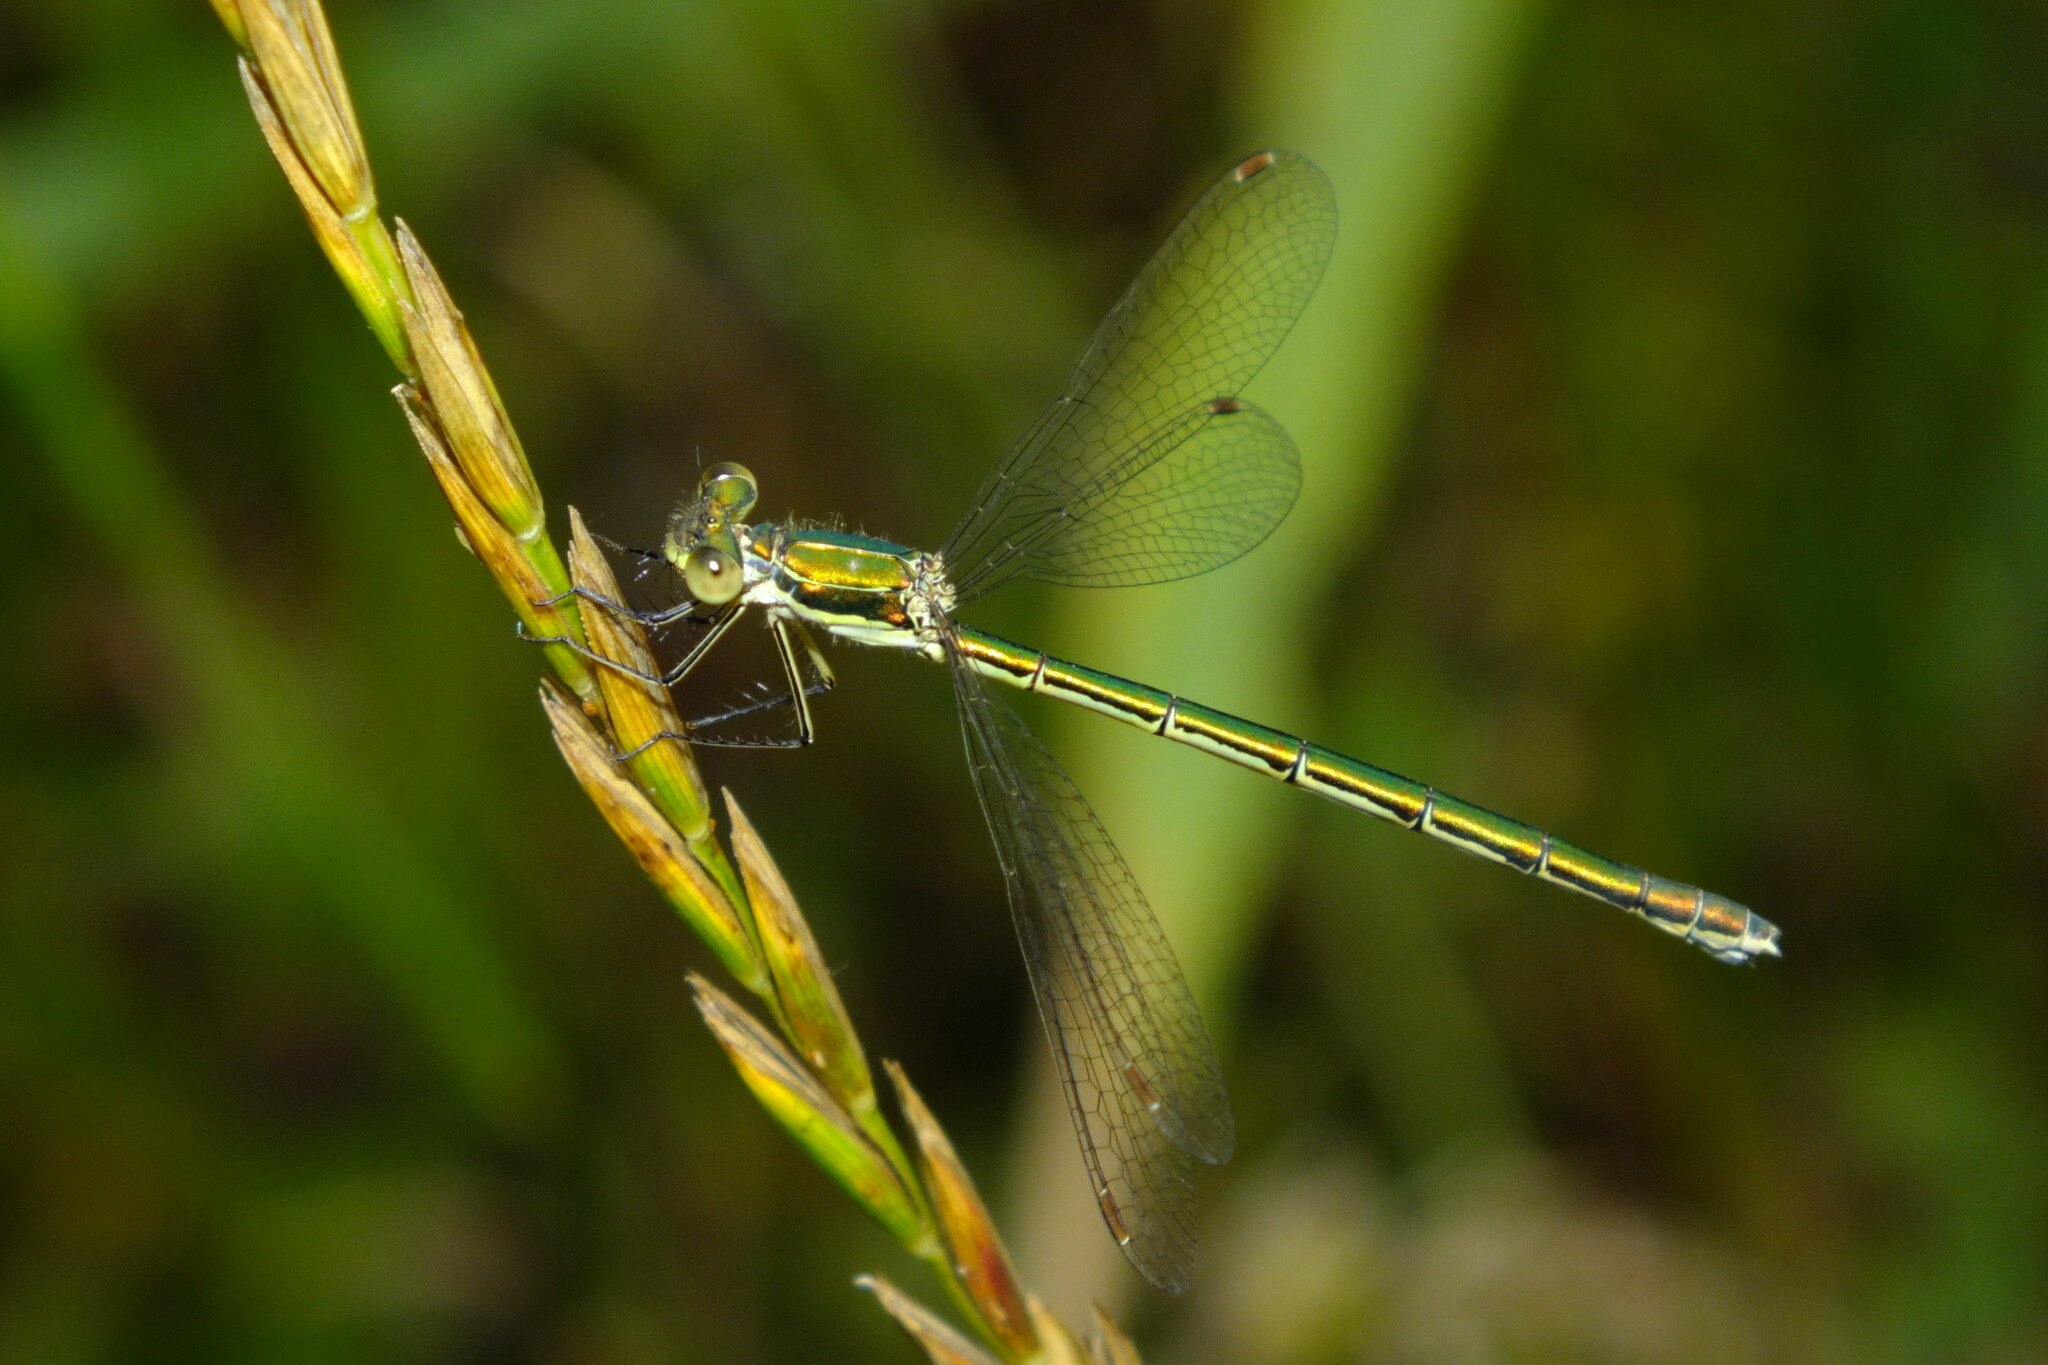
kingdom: Animalia
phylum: Arthropoda
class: Insecta
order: Odonata
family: Lestidae
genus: Lestes
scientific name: Lestes virens
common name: Small emerald spreadwing
